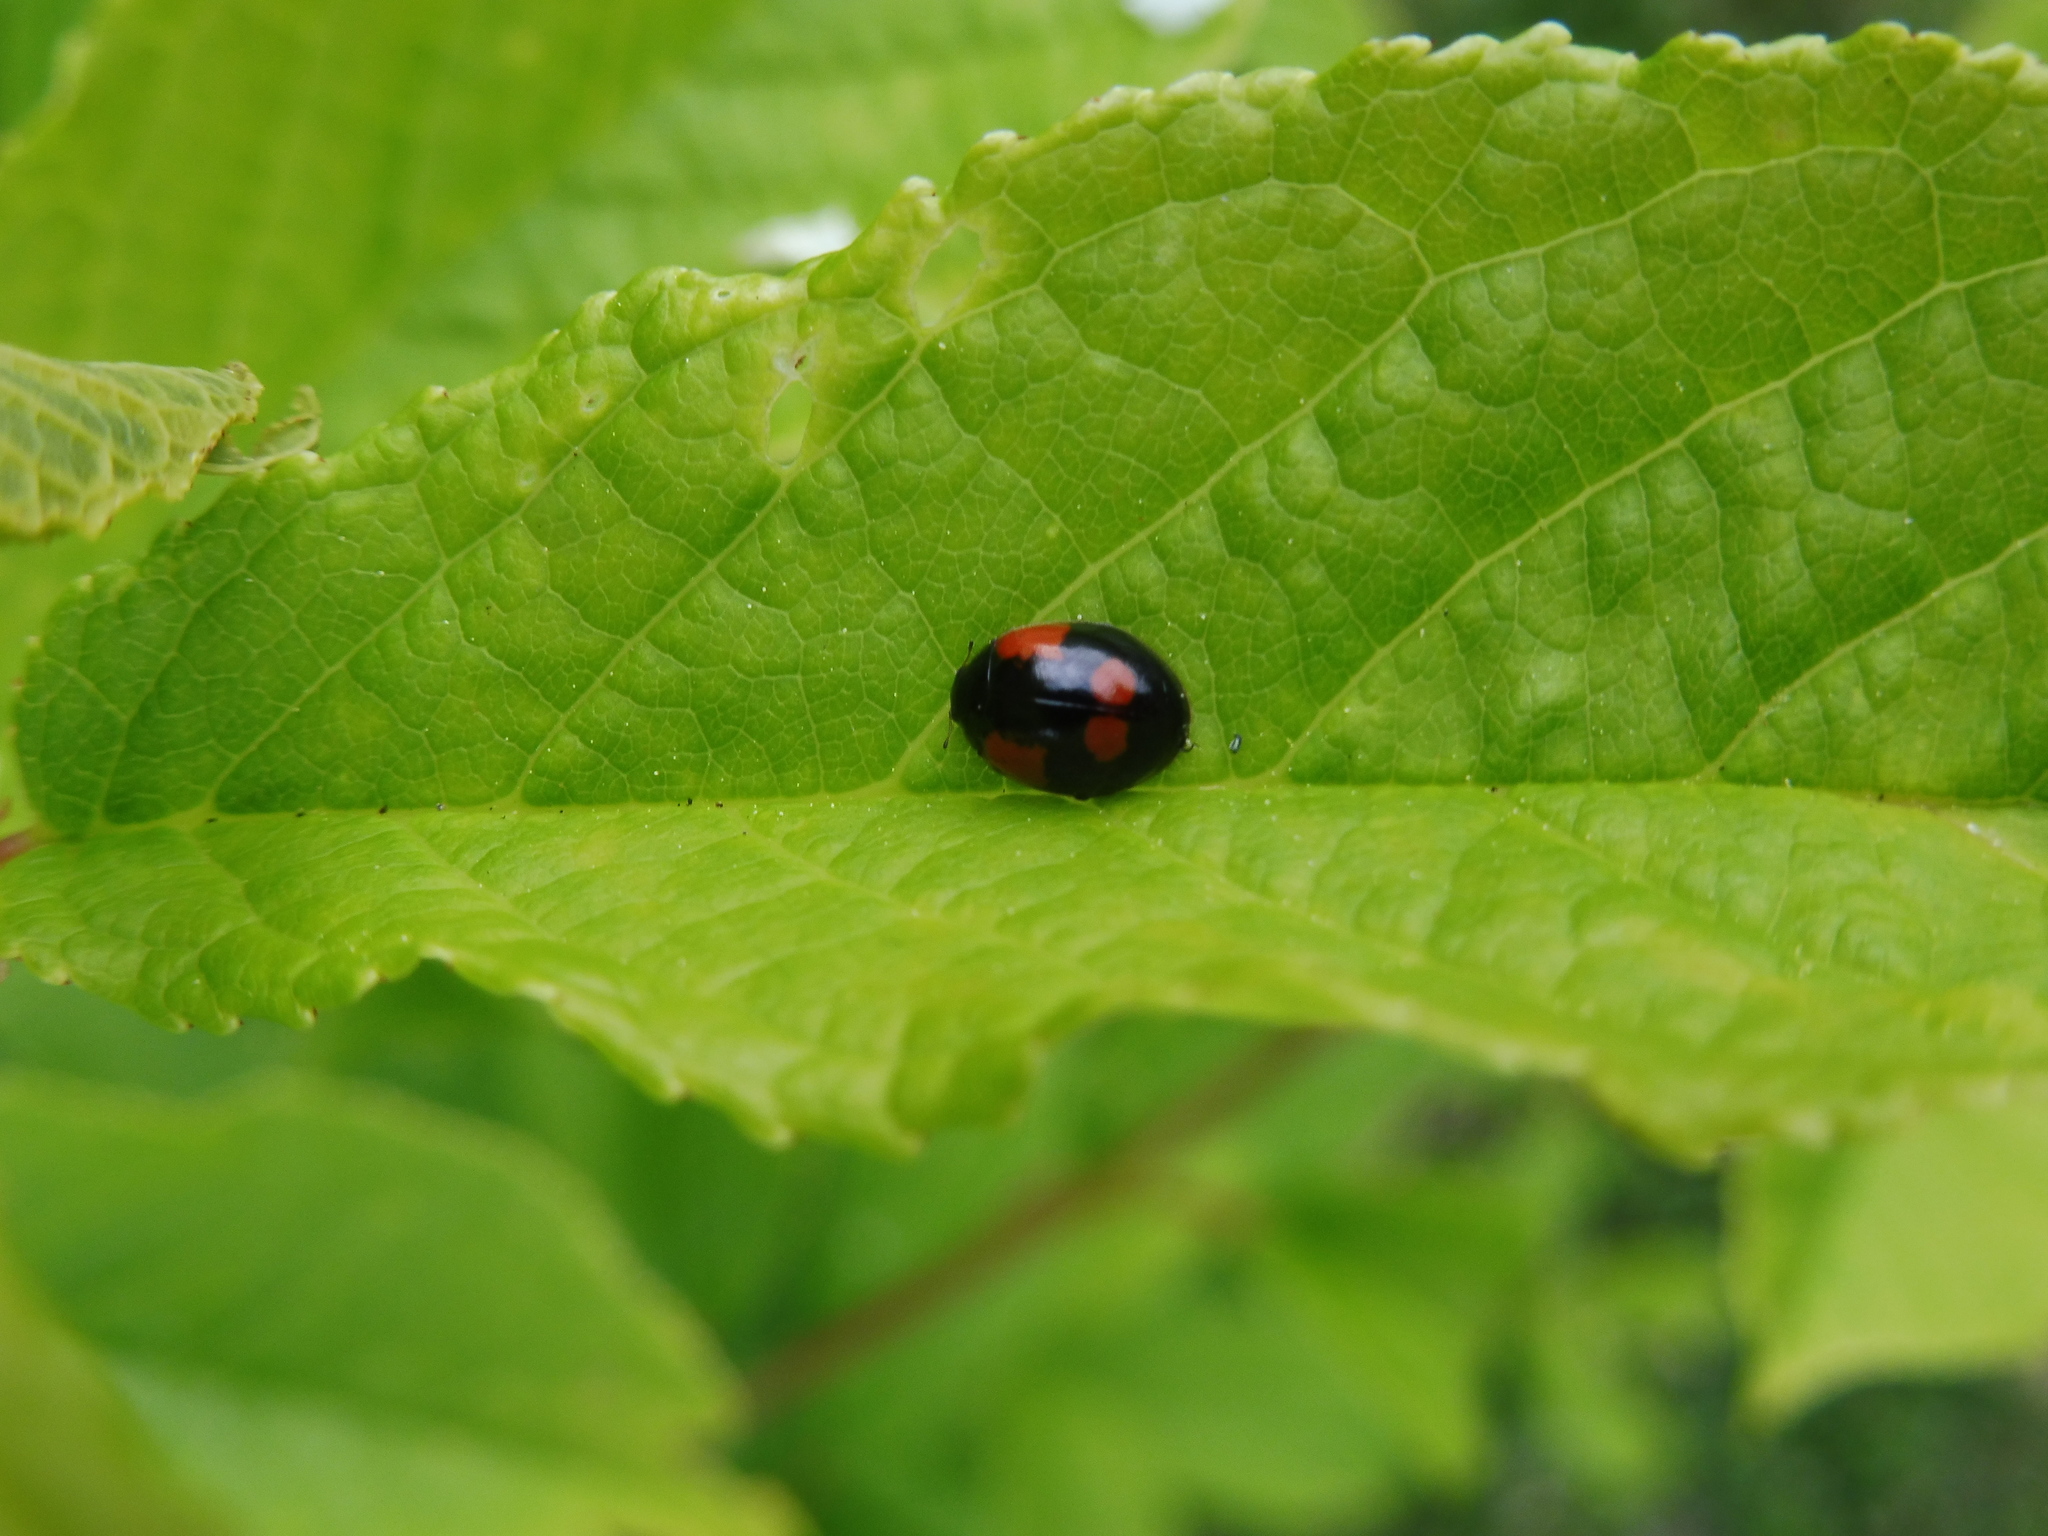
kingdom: Animalia
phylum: Arthropoda
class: Insecta
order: Coleoptera
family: Coccinellidae
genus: Adalia
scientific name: Adalia bipunctata
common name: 2-spot ladybird
